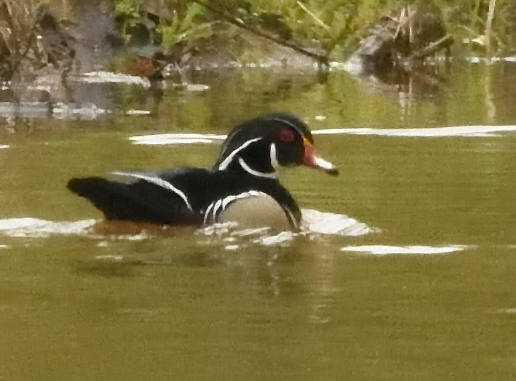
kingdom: Animalia
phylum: Chordata
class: Aves
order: Anseriformes
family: Anatidae
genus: Aix
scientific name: Aix sponsa
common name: Wood duck
